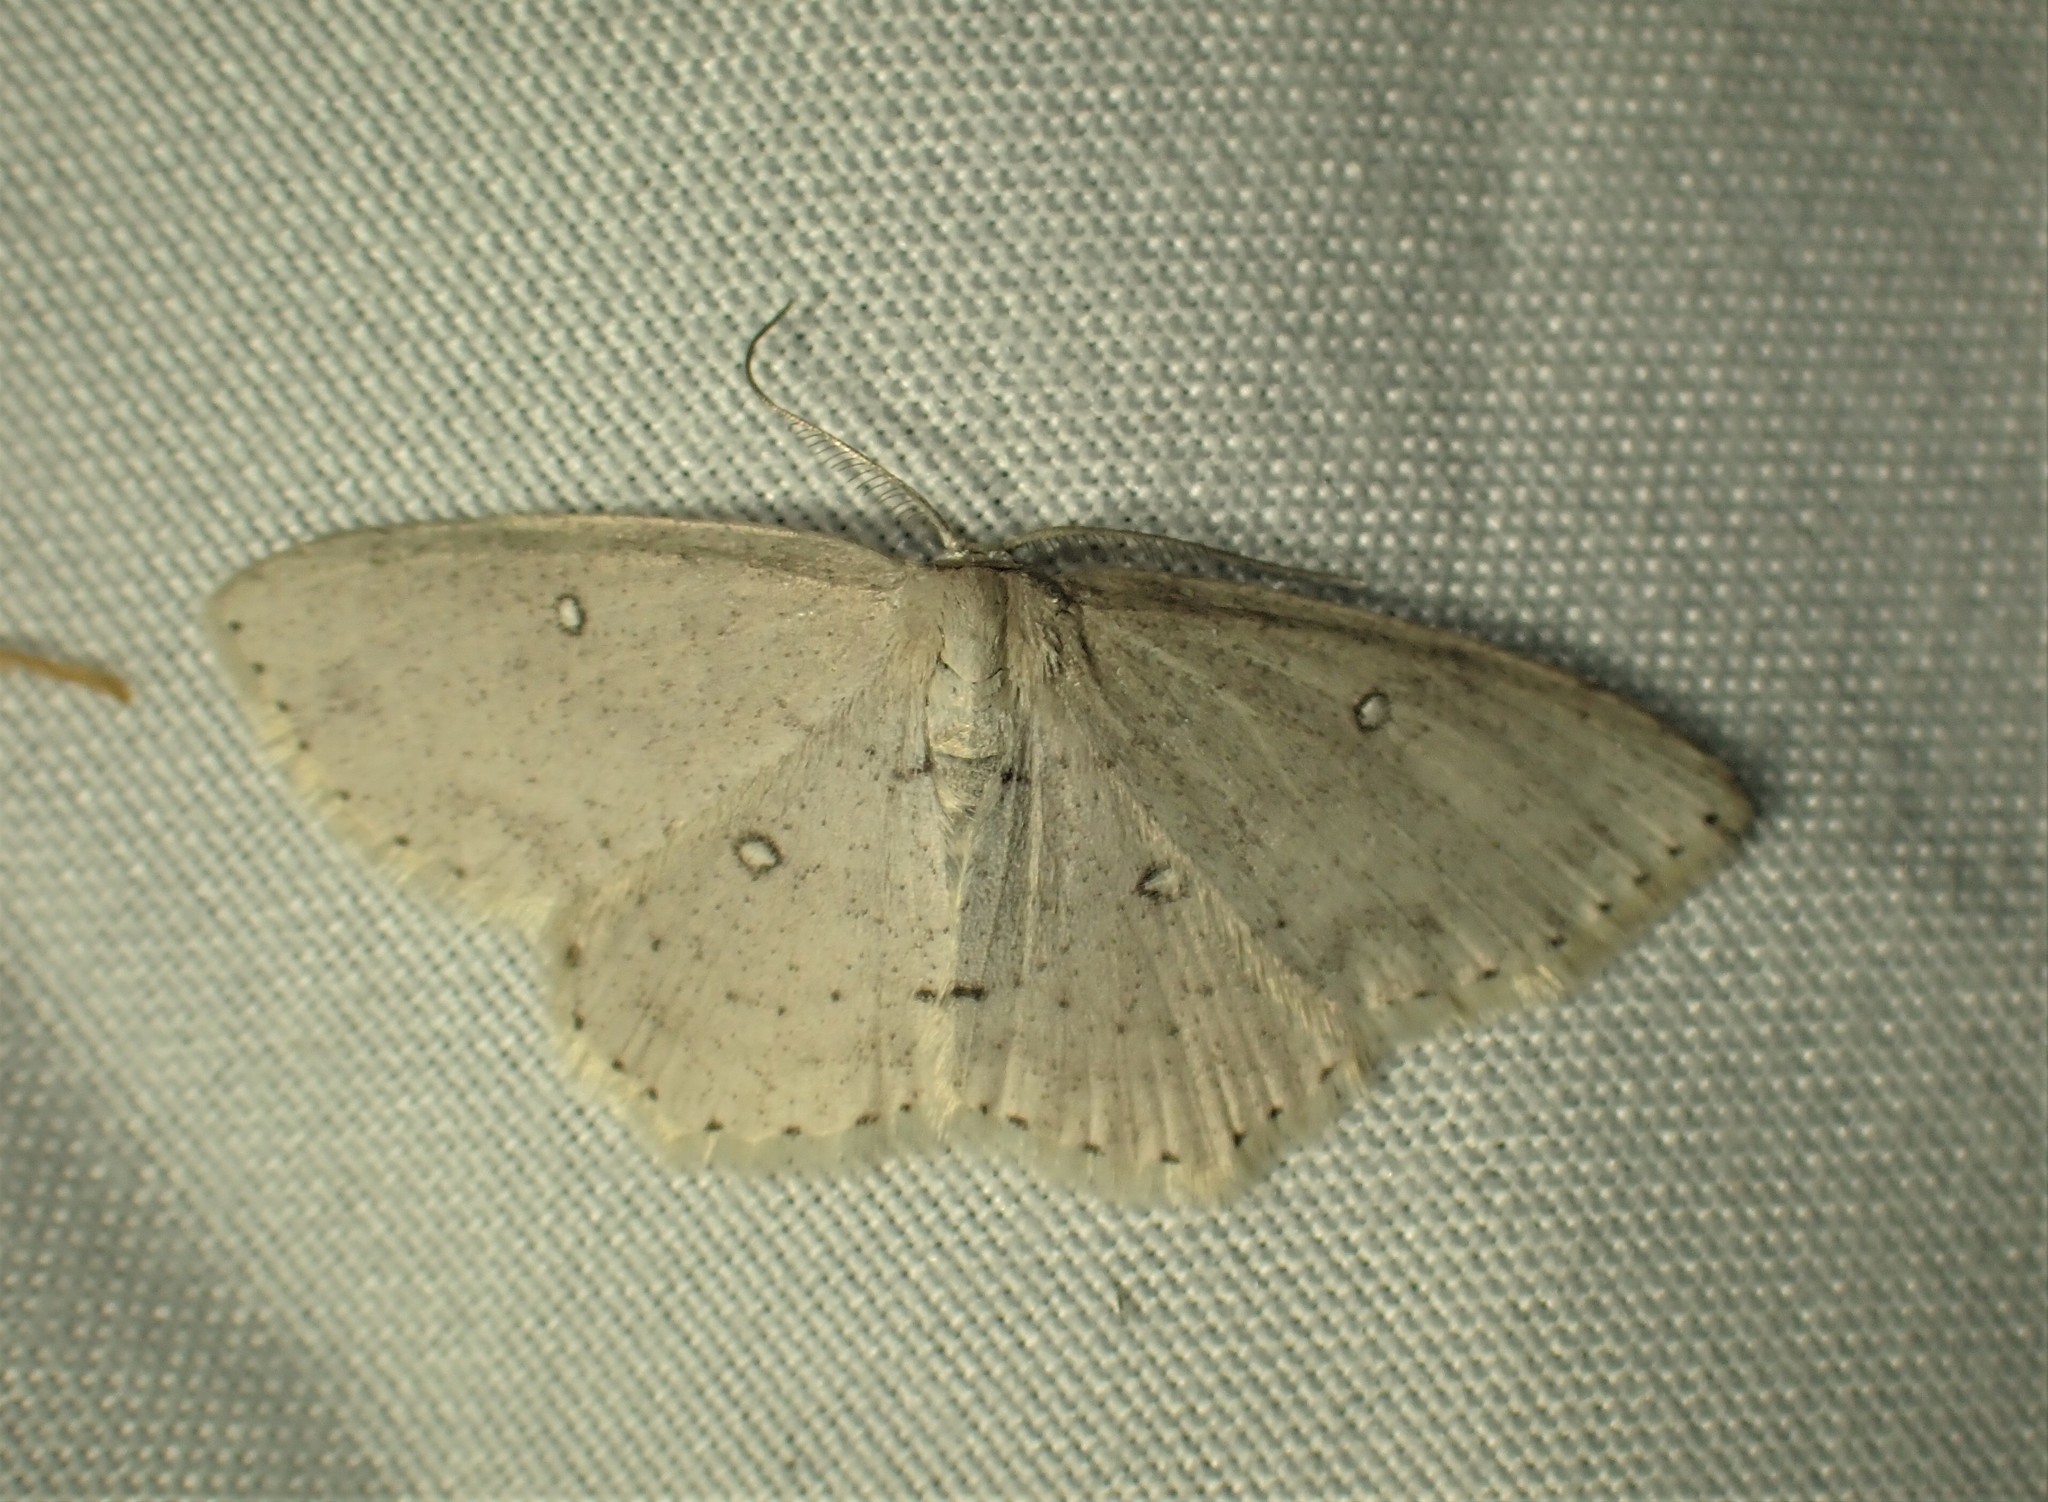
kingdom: Animalia
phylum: Arthropoda
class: Insecta
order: Lepidoptera
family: Geometridae
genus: Cyclophora
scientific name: Cyclophora pendulinaria
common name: Sweet fern geometer
